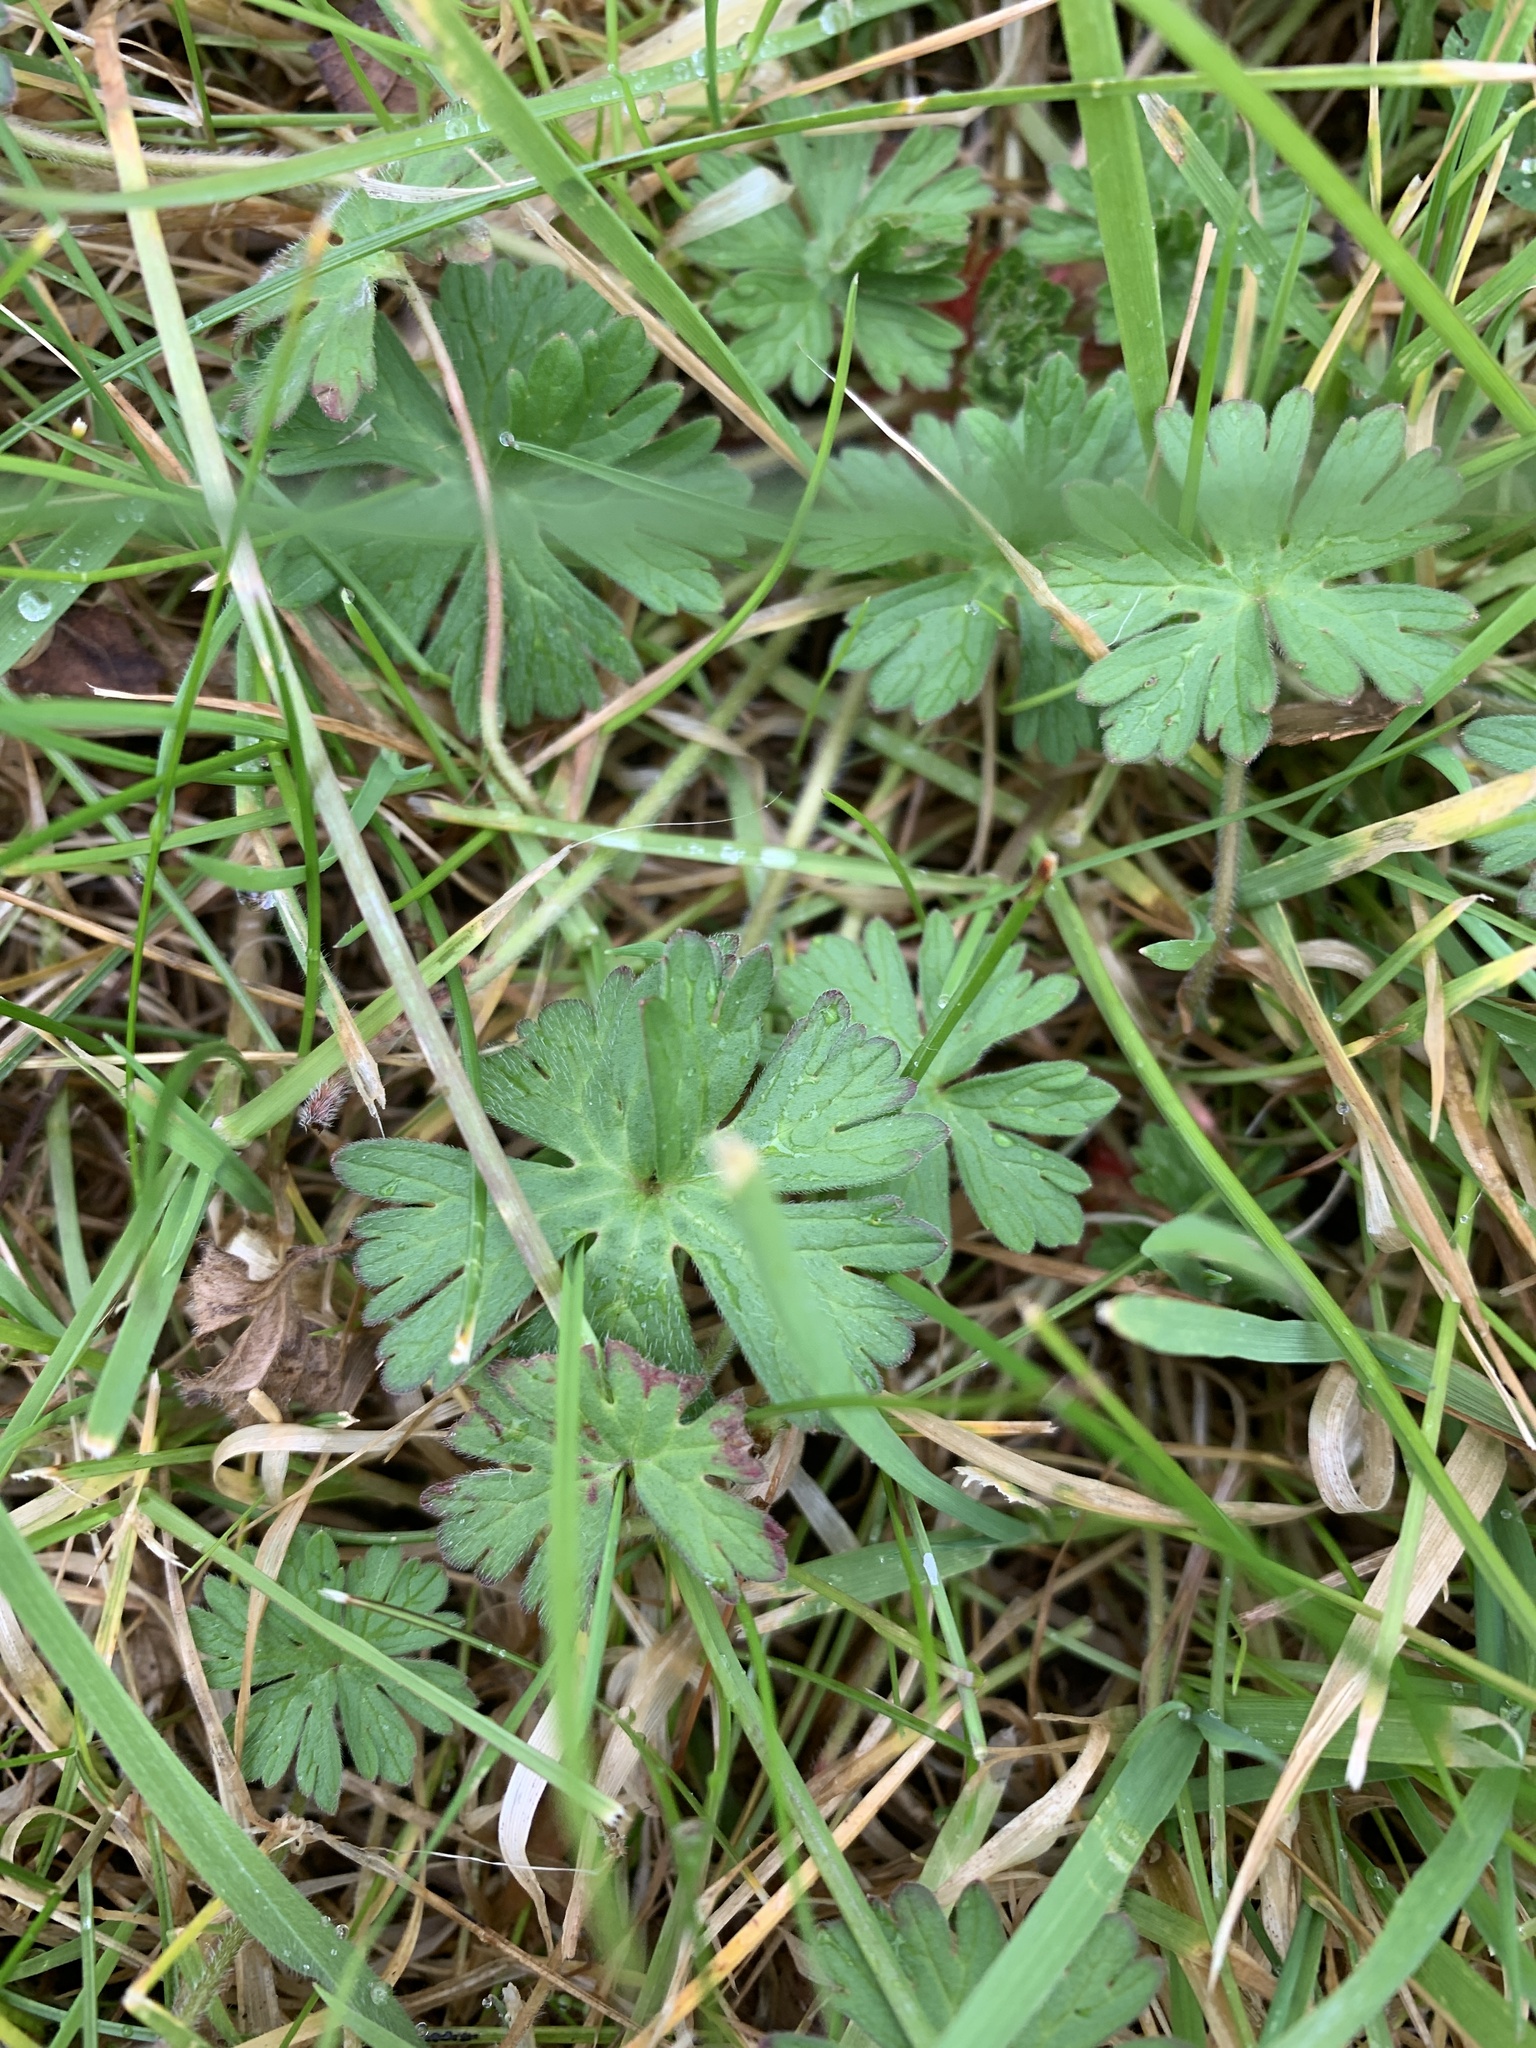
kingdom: Plantae
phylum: Tracheophyta
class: Magnoliopsida
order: Geraniales
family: Geraniaceae
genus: Geranium
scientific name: Geranium molle
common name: Dove's-foot crane's-bill
